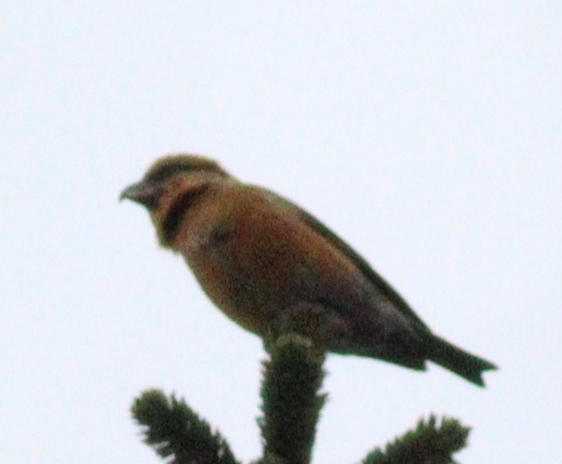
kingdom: Animalia
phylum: Chordata
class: Aves
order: Passeriformes
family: Fringillidae
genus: Loxia
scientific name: Loxia curvirostra
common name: Red crossbill
